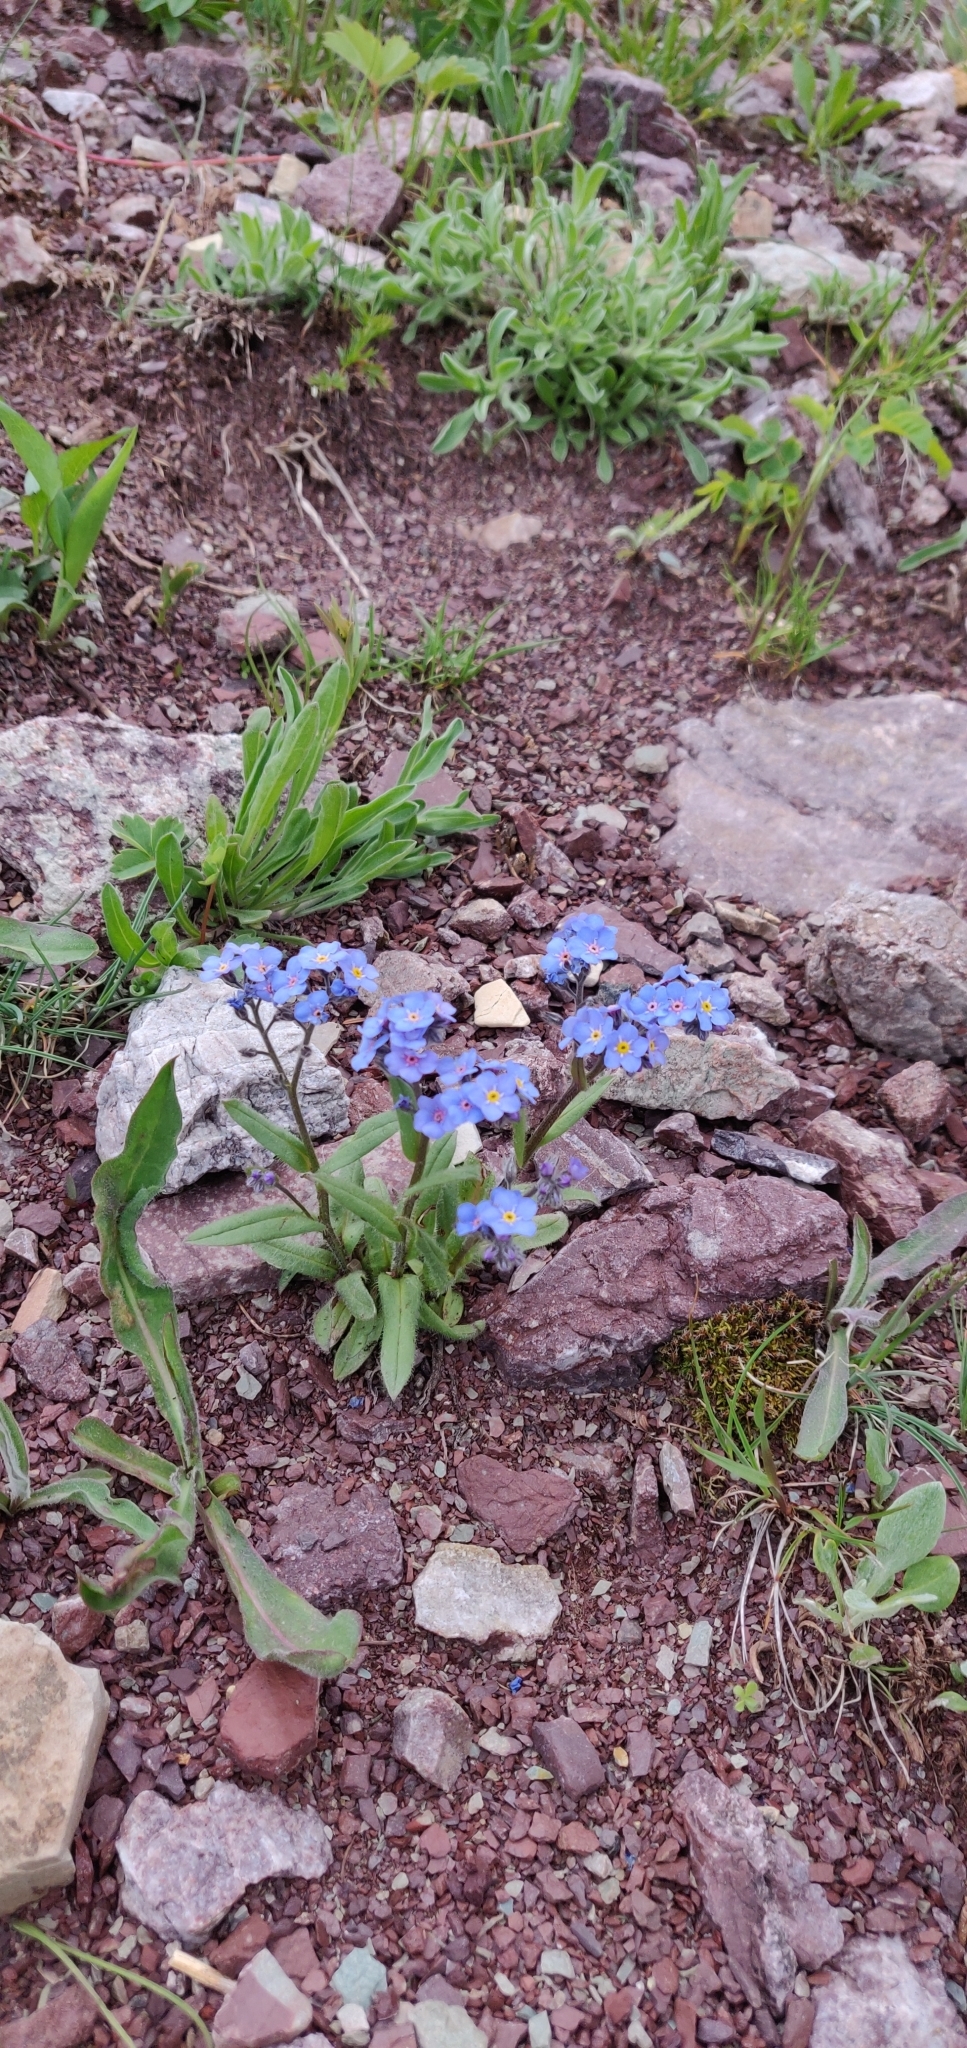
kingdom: Plantae
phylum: Tracheophyta
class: Magnoliopsida
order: Boraginales
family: Boraginaceae
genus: Myosotis
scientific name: Myosotis asiatica
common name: Asian forget-me-not
